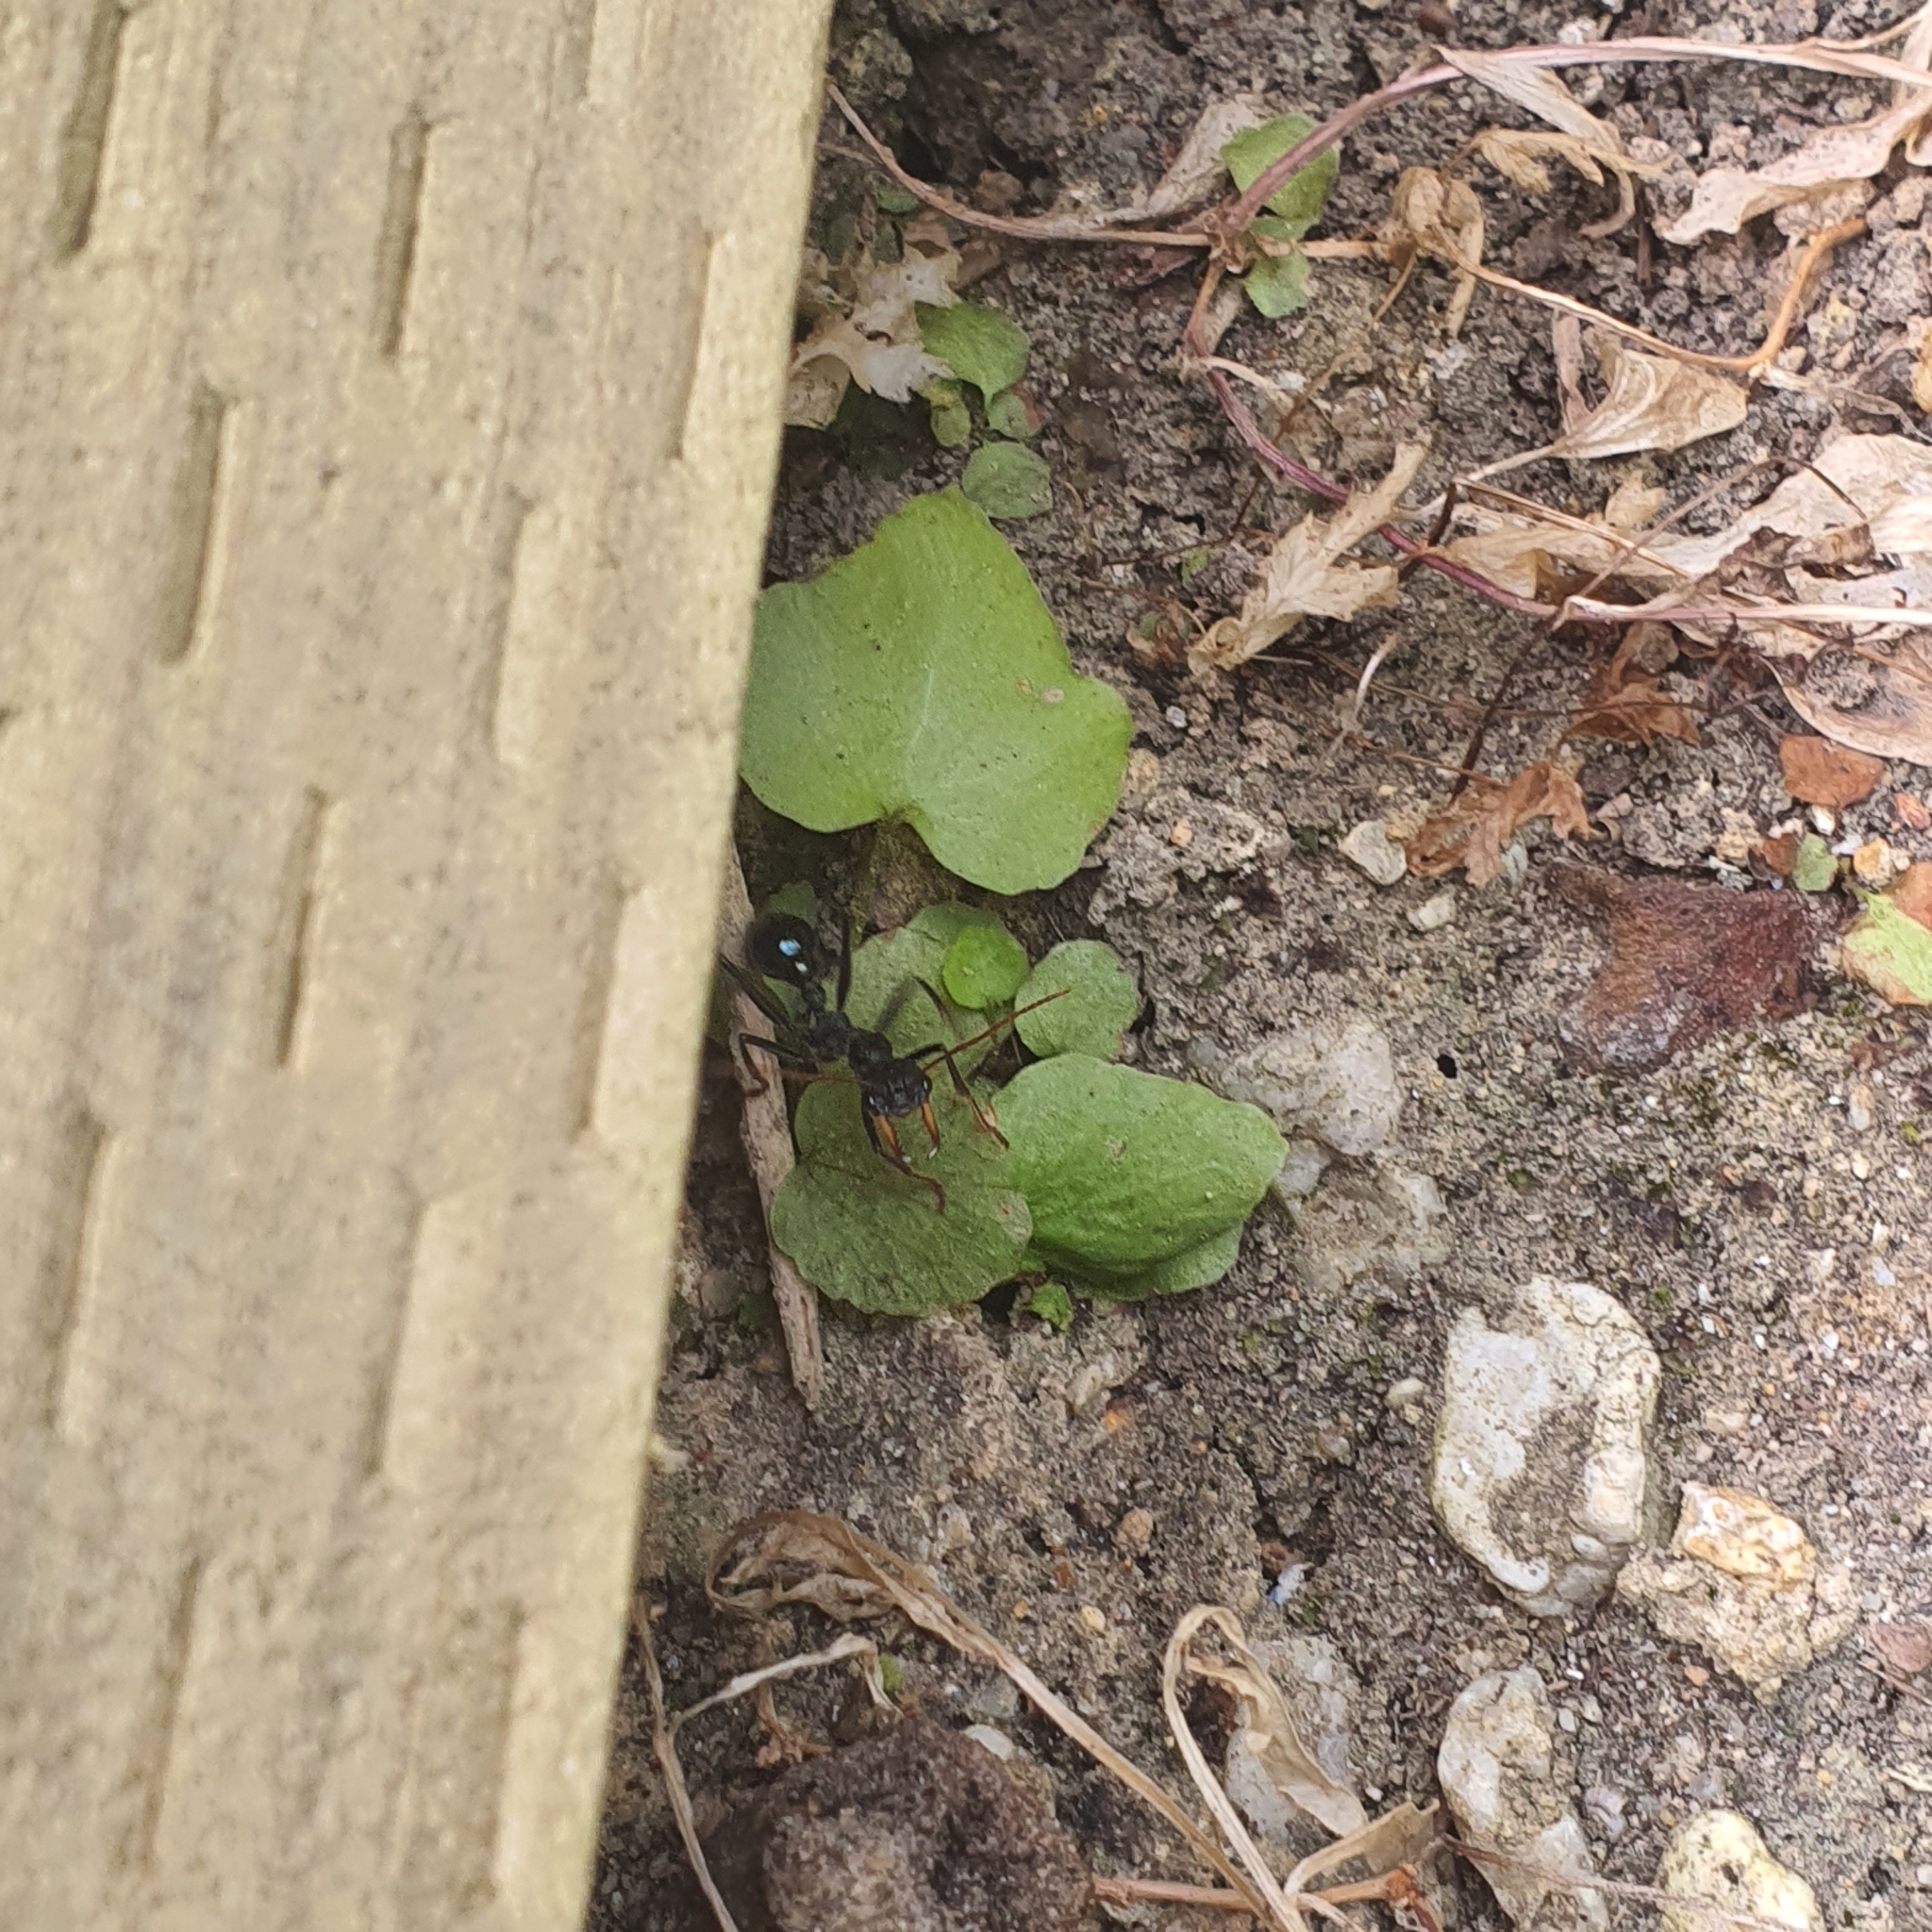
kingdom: Animalia
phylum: Arthropoda
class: Insecta
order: Hymenoptera
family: Formicidae
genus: Myrmecia
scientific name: Myrmecia tarsata
